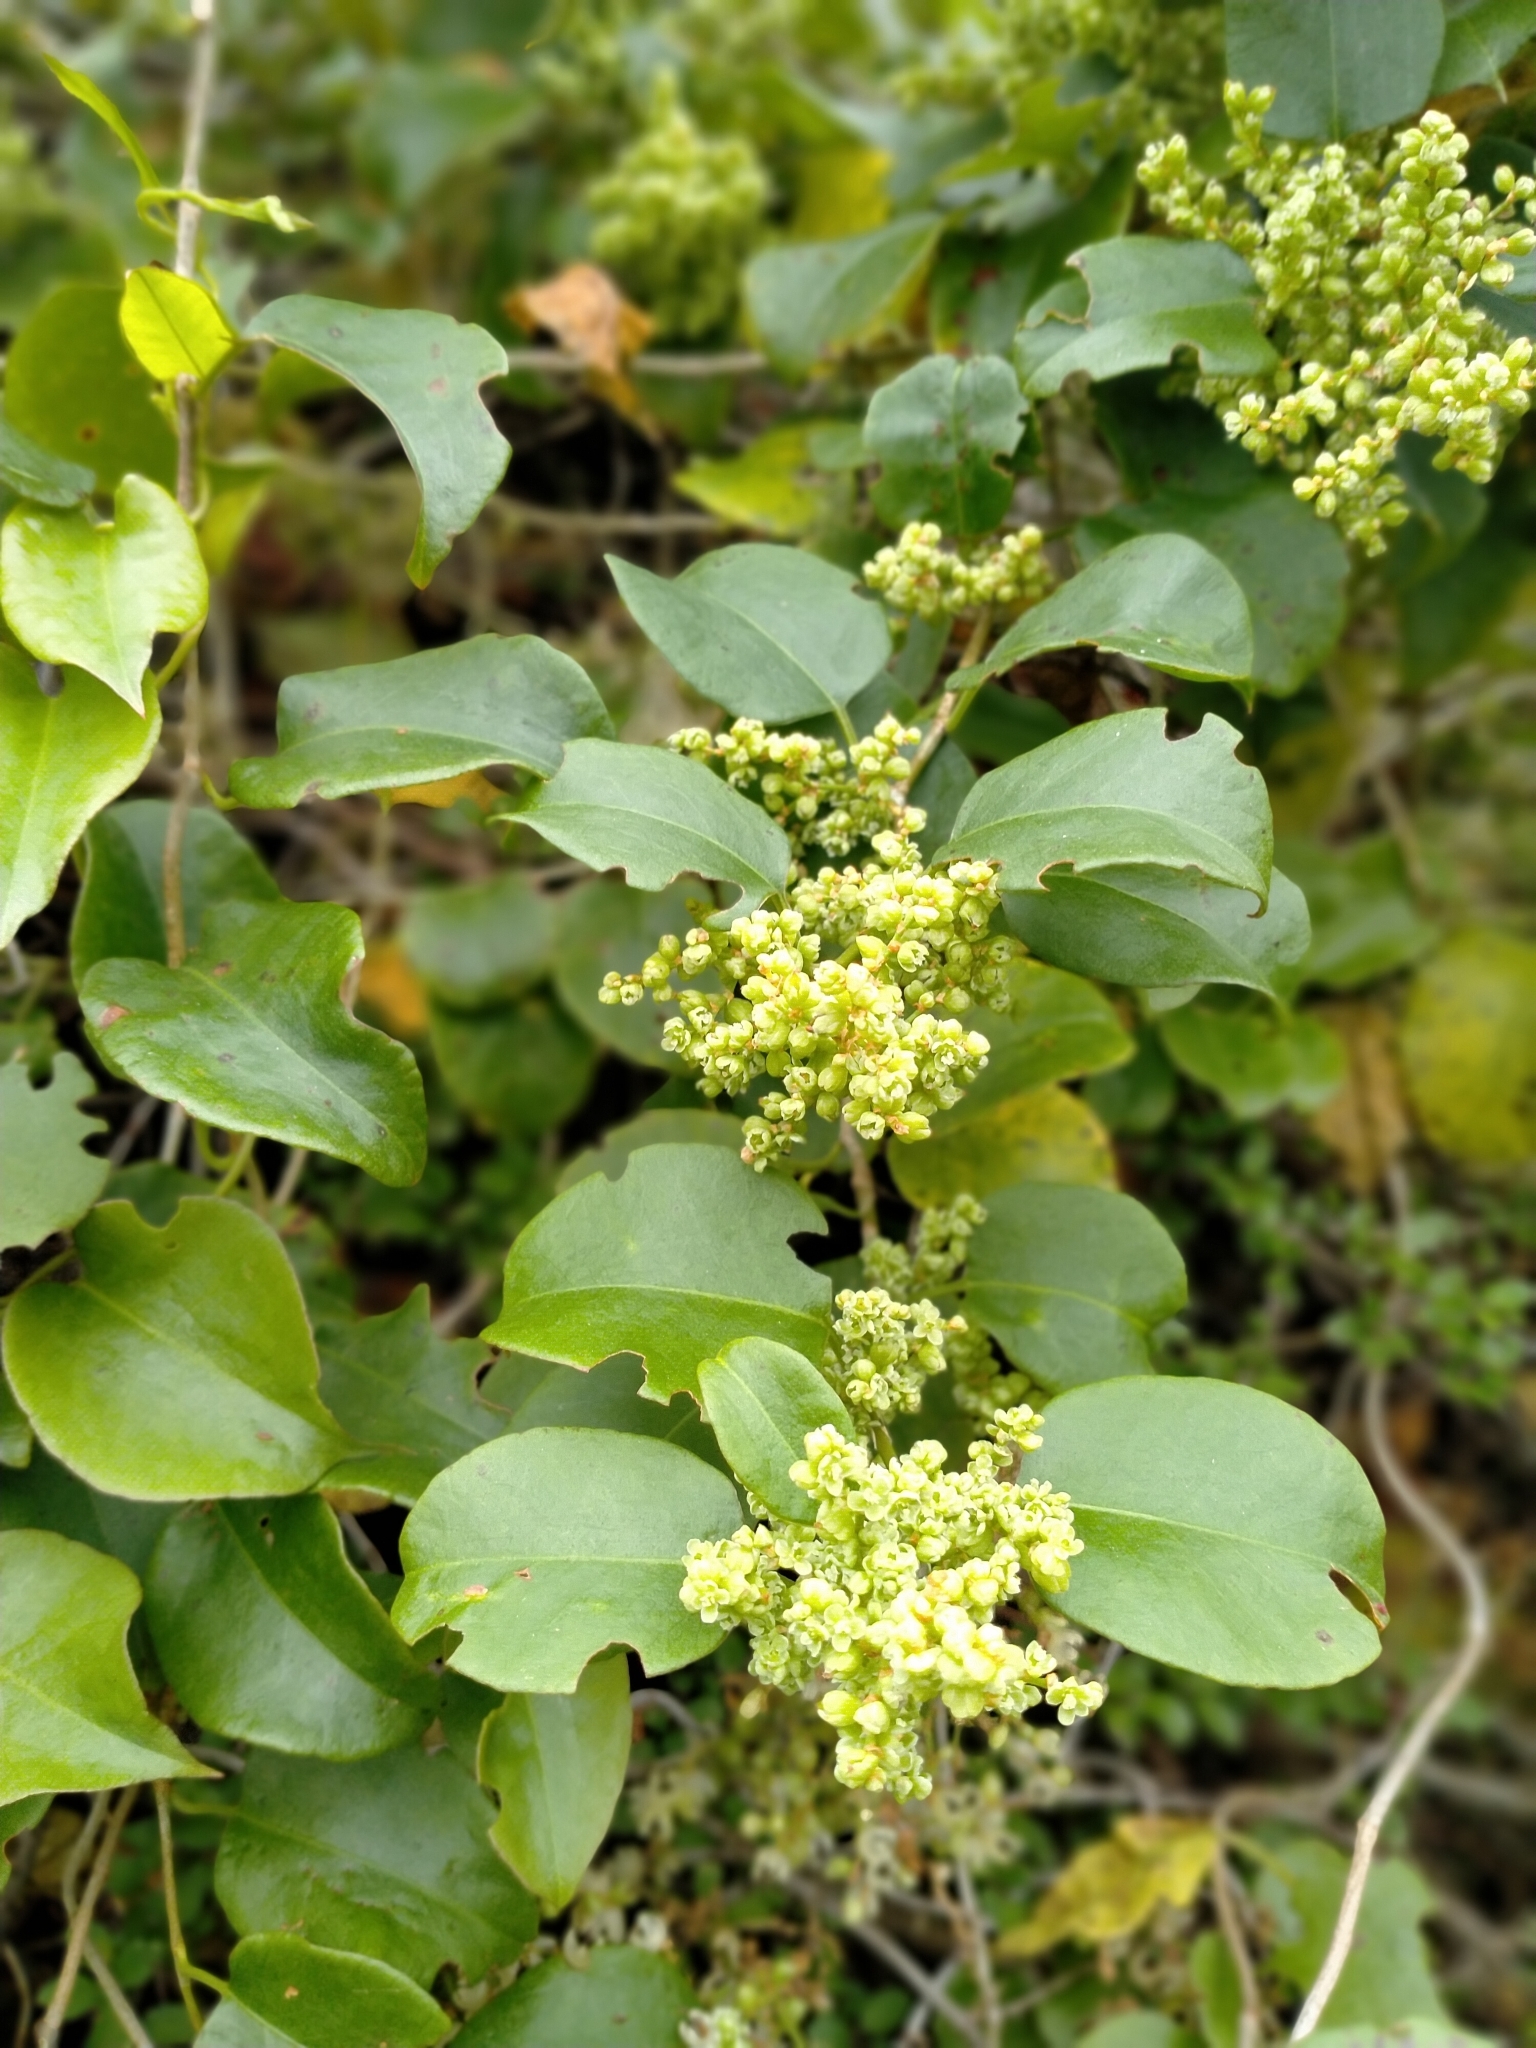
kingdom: Plantae
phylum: Tracheophyta
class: Magnoliopsida
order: Caryophyllales
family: Polygonaceae
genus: Muehlenbeckia
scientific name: Muehlenbeckia australis
